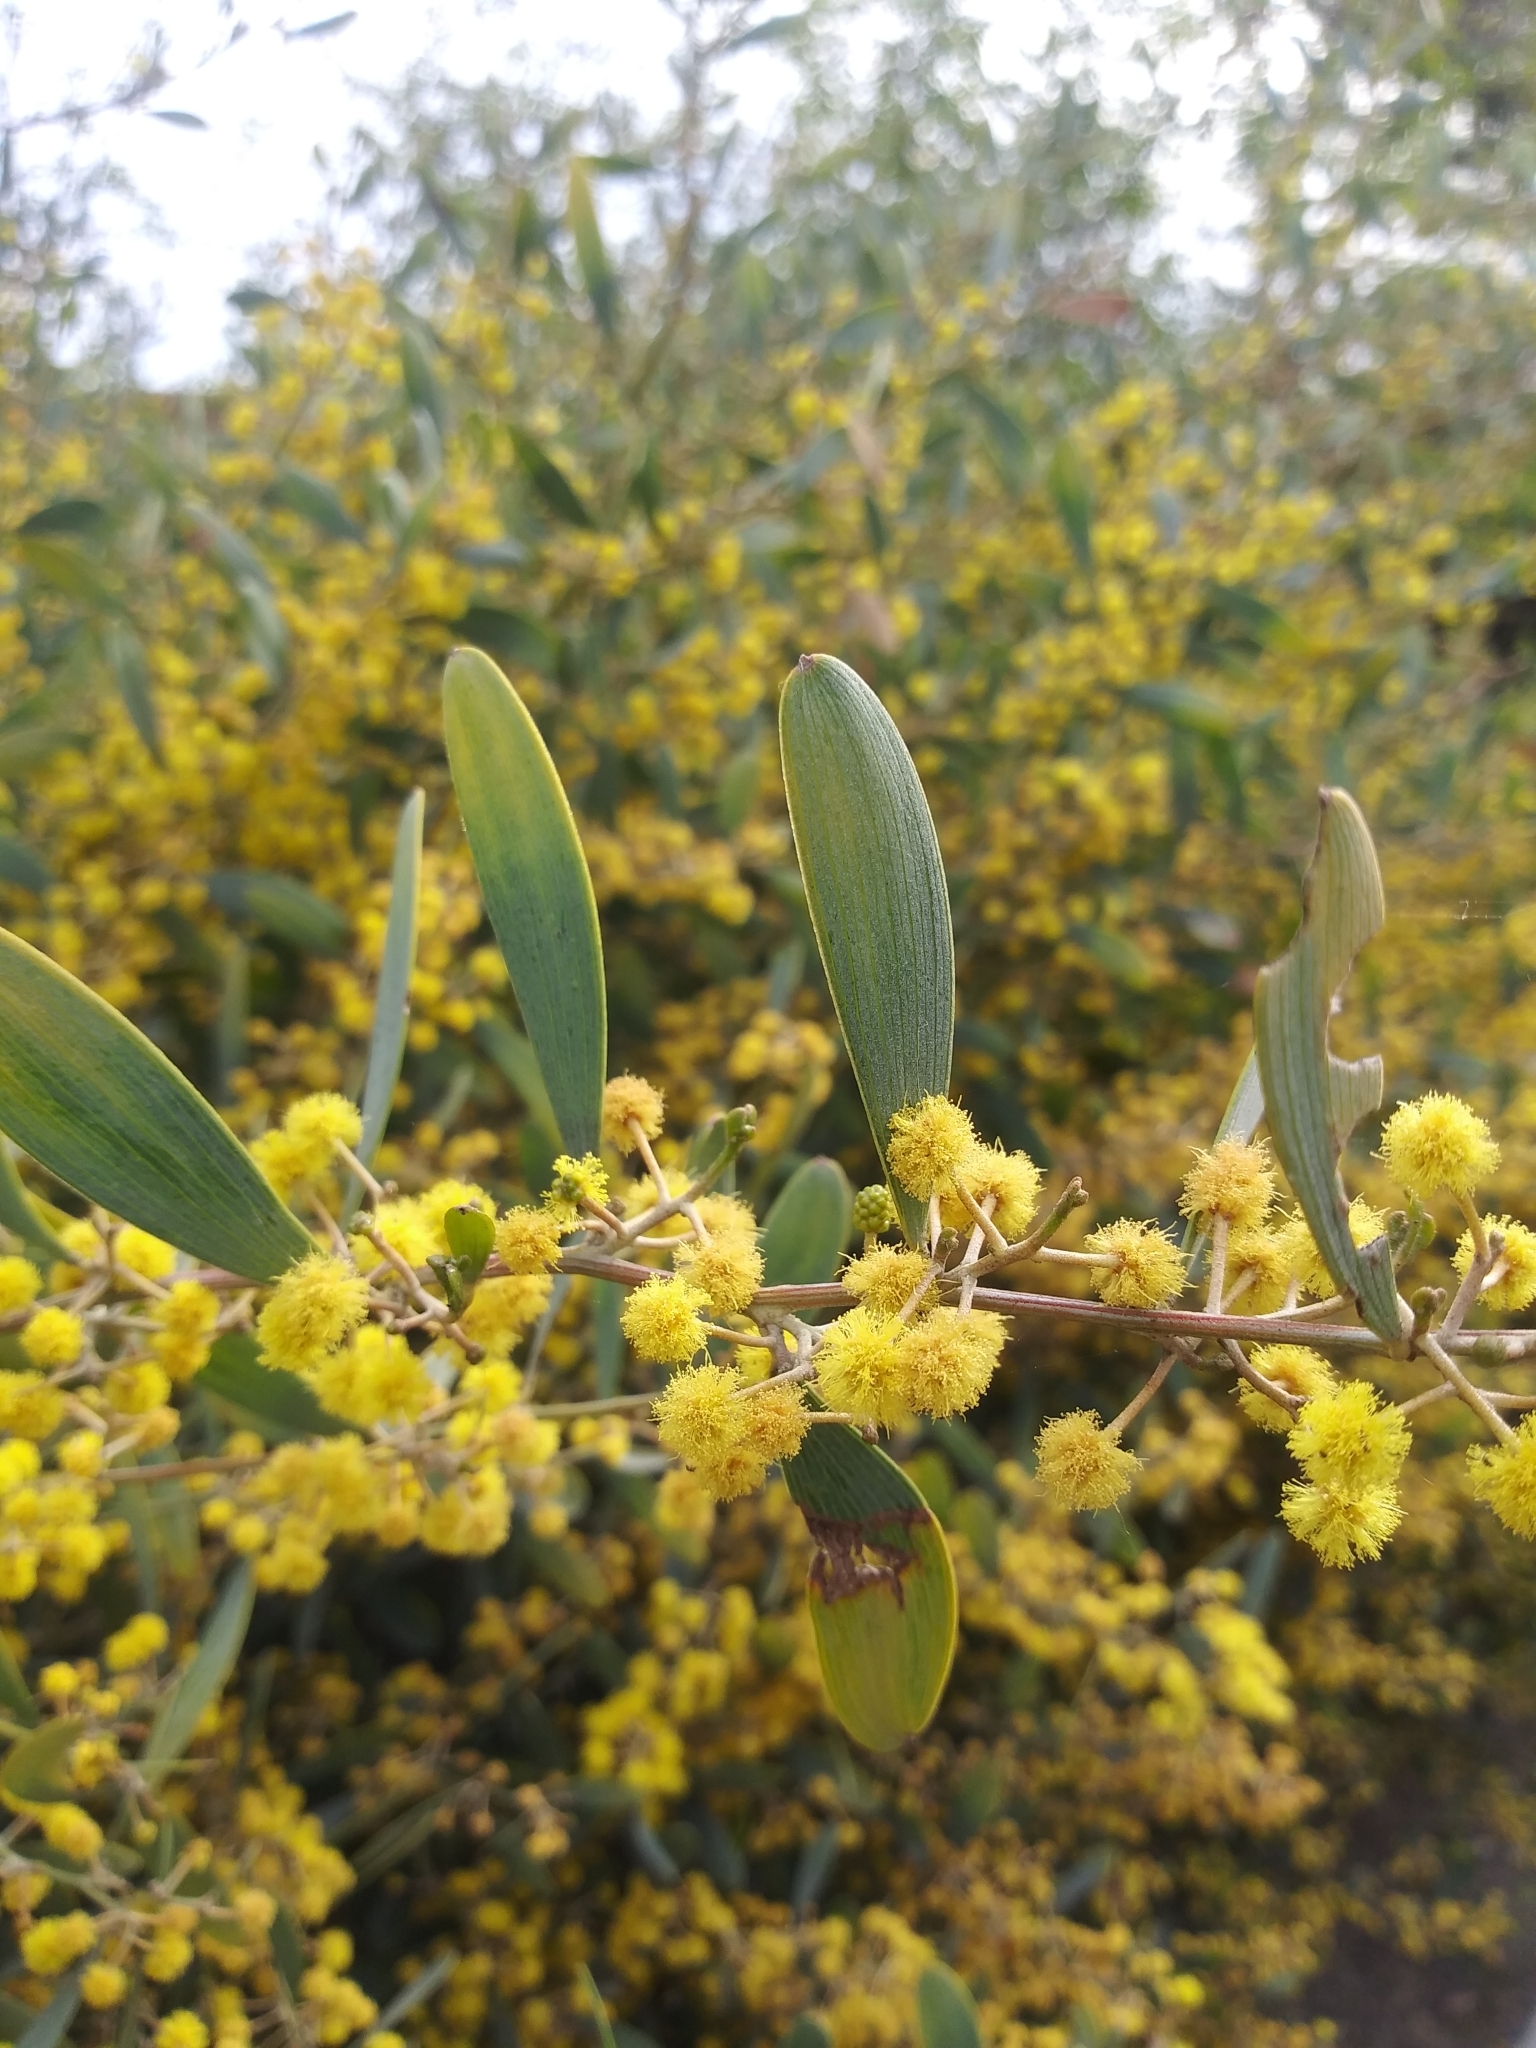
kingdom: Plantae
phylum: Tracheophyta
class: Magnoliopsida
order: Fabales
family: Fabaceae
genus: Acacia
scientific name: Acacia redolens
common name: Bank catclaw
